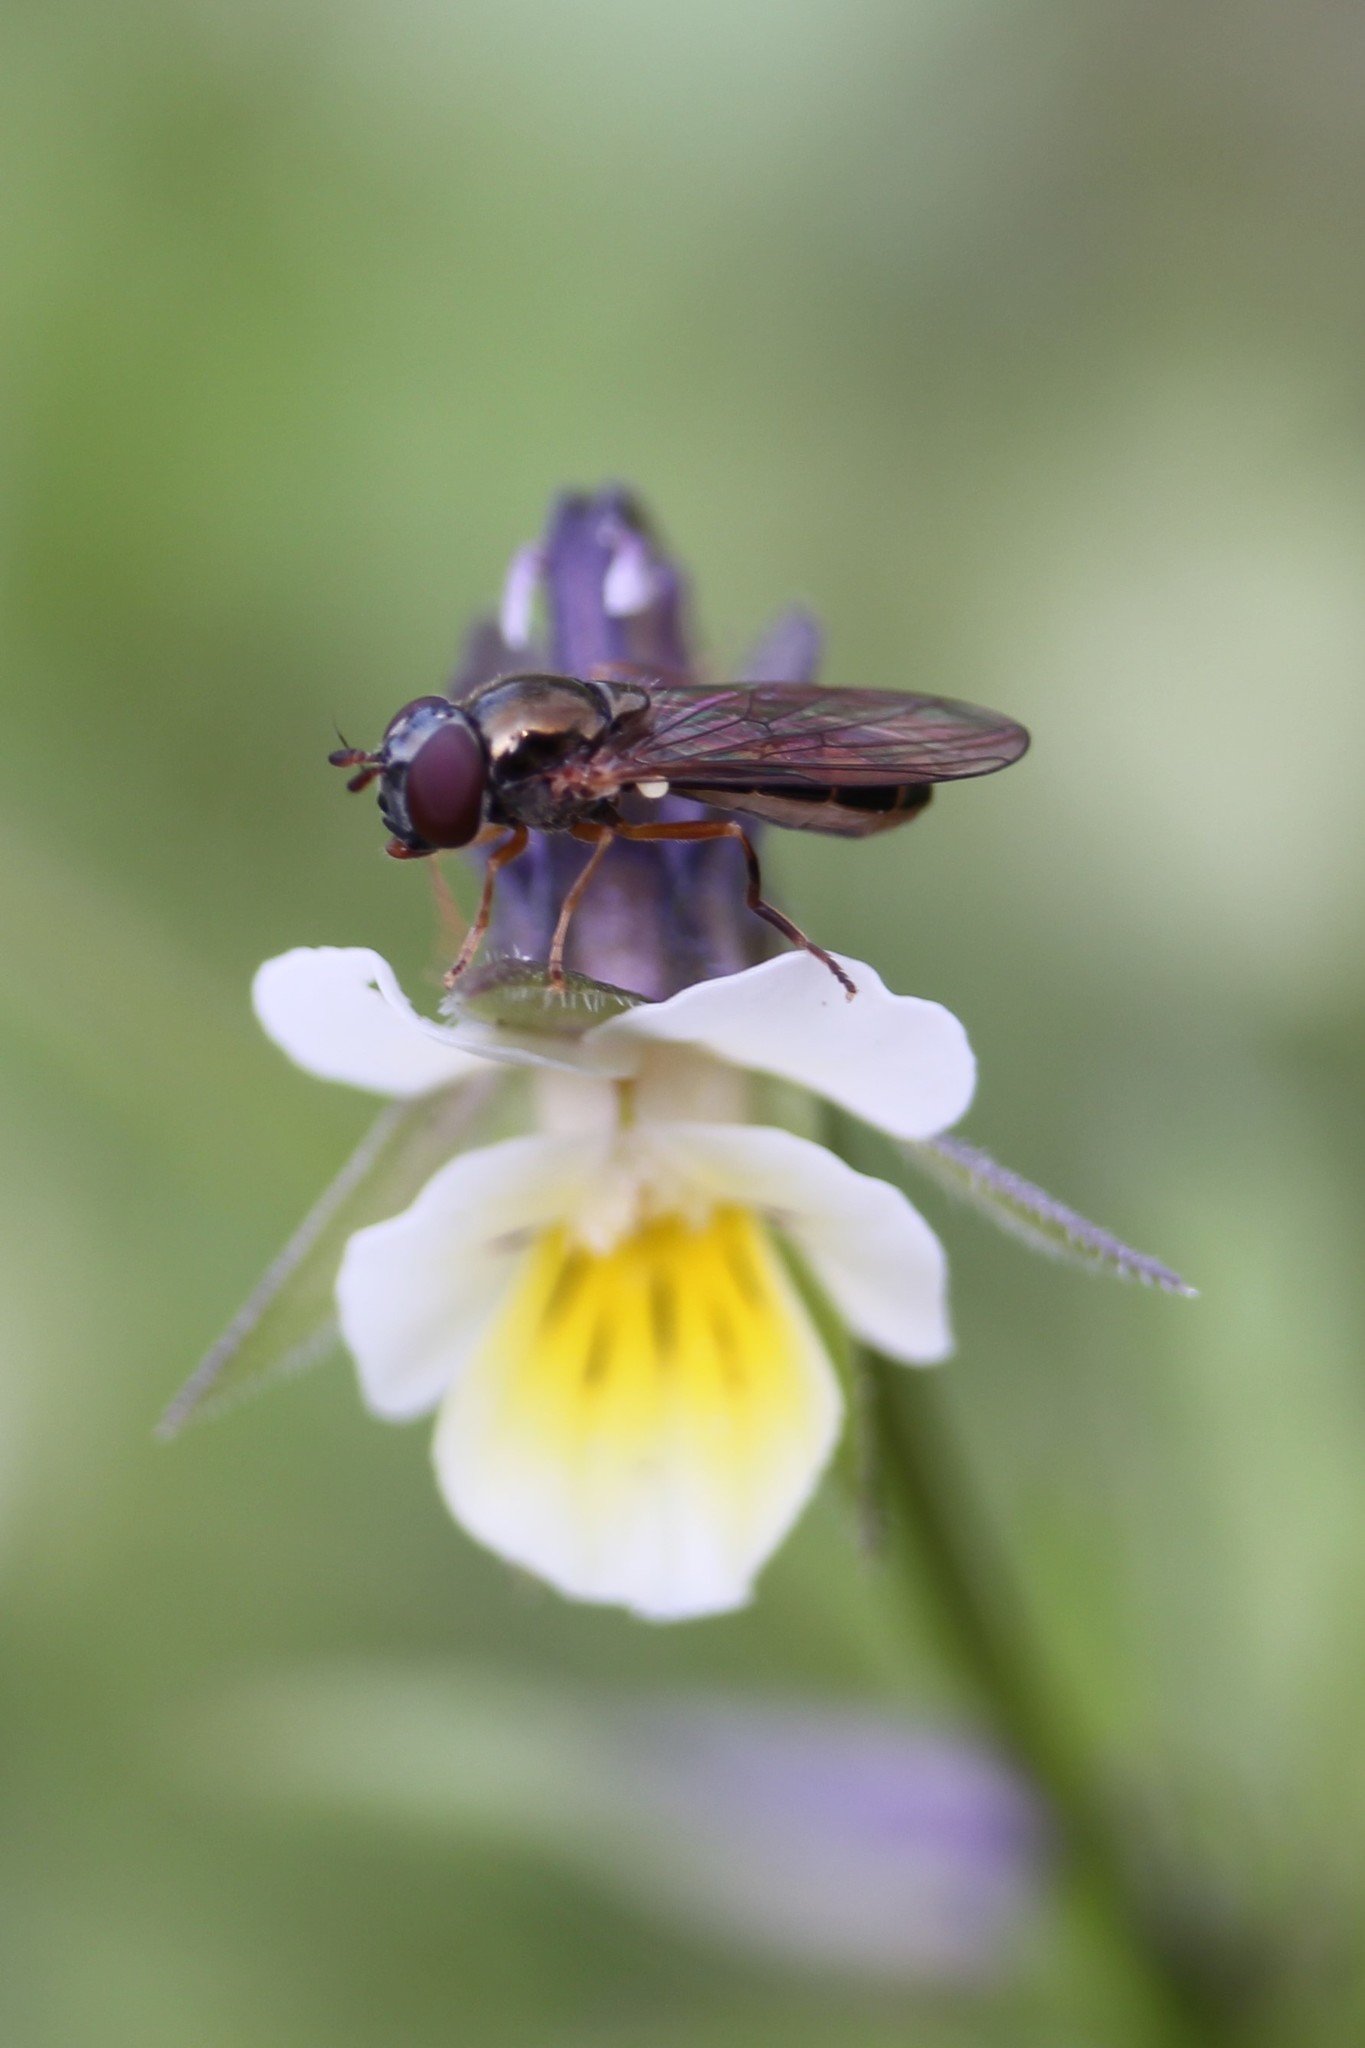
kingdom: Animalia
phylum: Arthropoda
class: Insecta
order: Diptera
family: Syrphidae
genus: Melanostoma
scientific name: Melanostoma fasciatum
